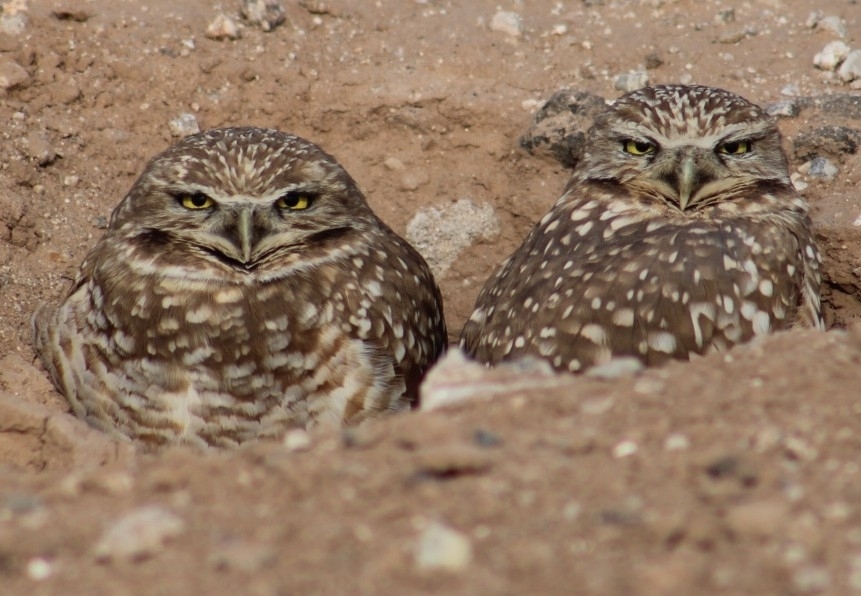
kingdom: Animalia
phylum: Chordata
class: Aves
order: Strigiformes
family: Strigidae
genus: Athene
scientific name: Athene cunicularia
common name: Burrowing owl
